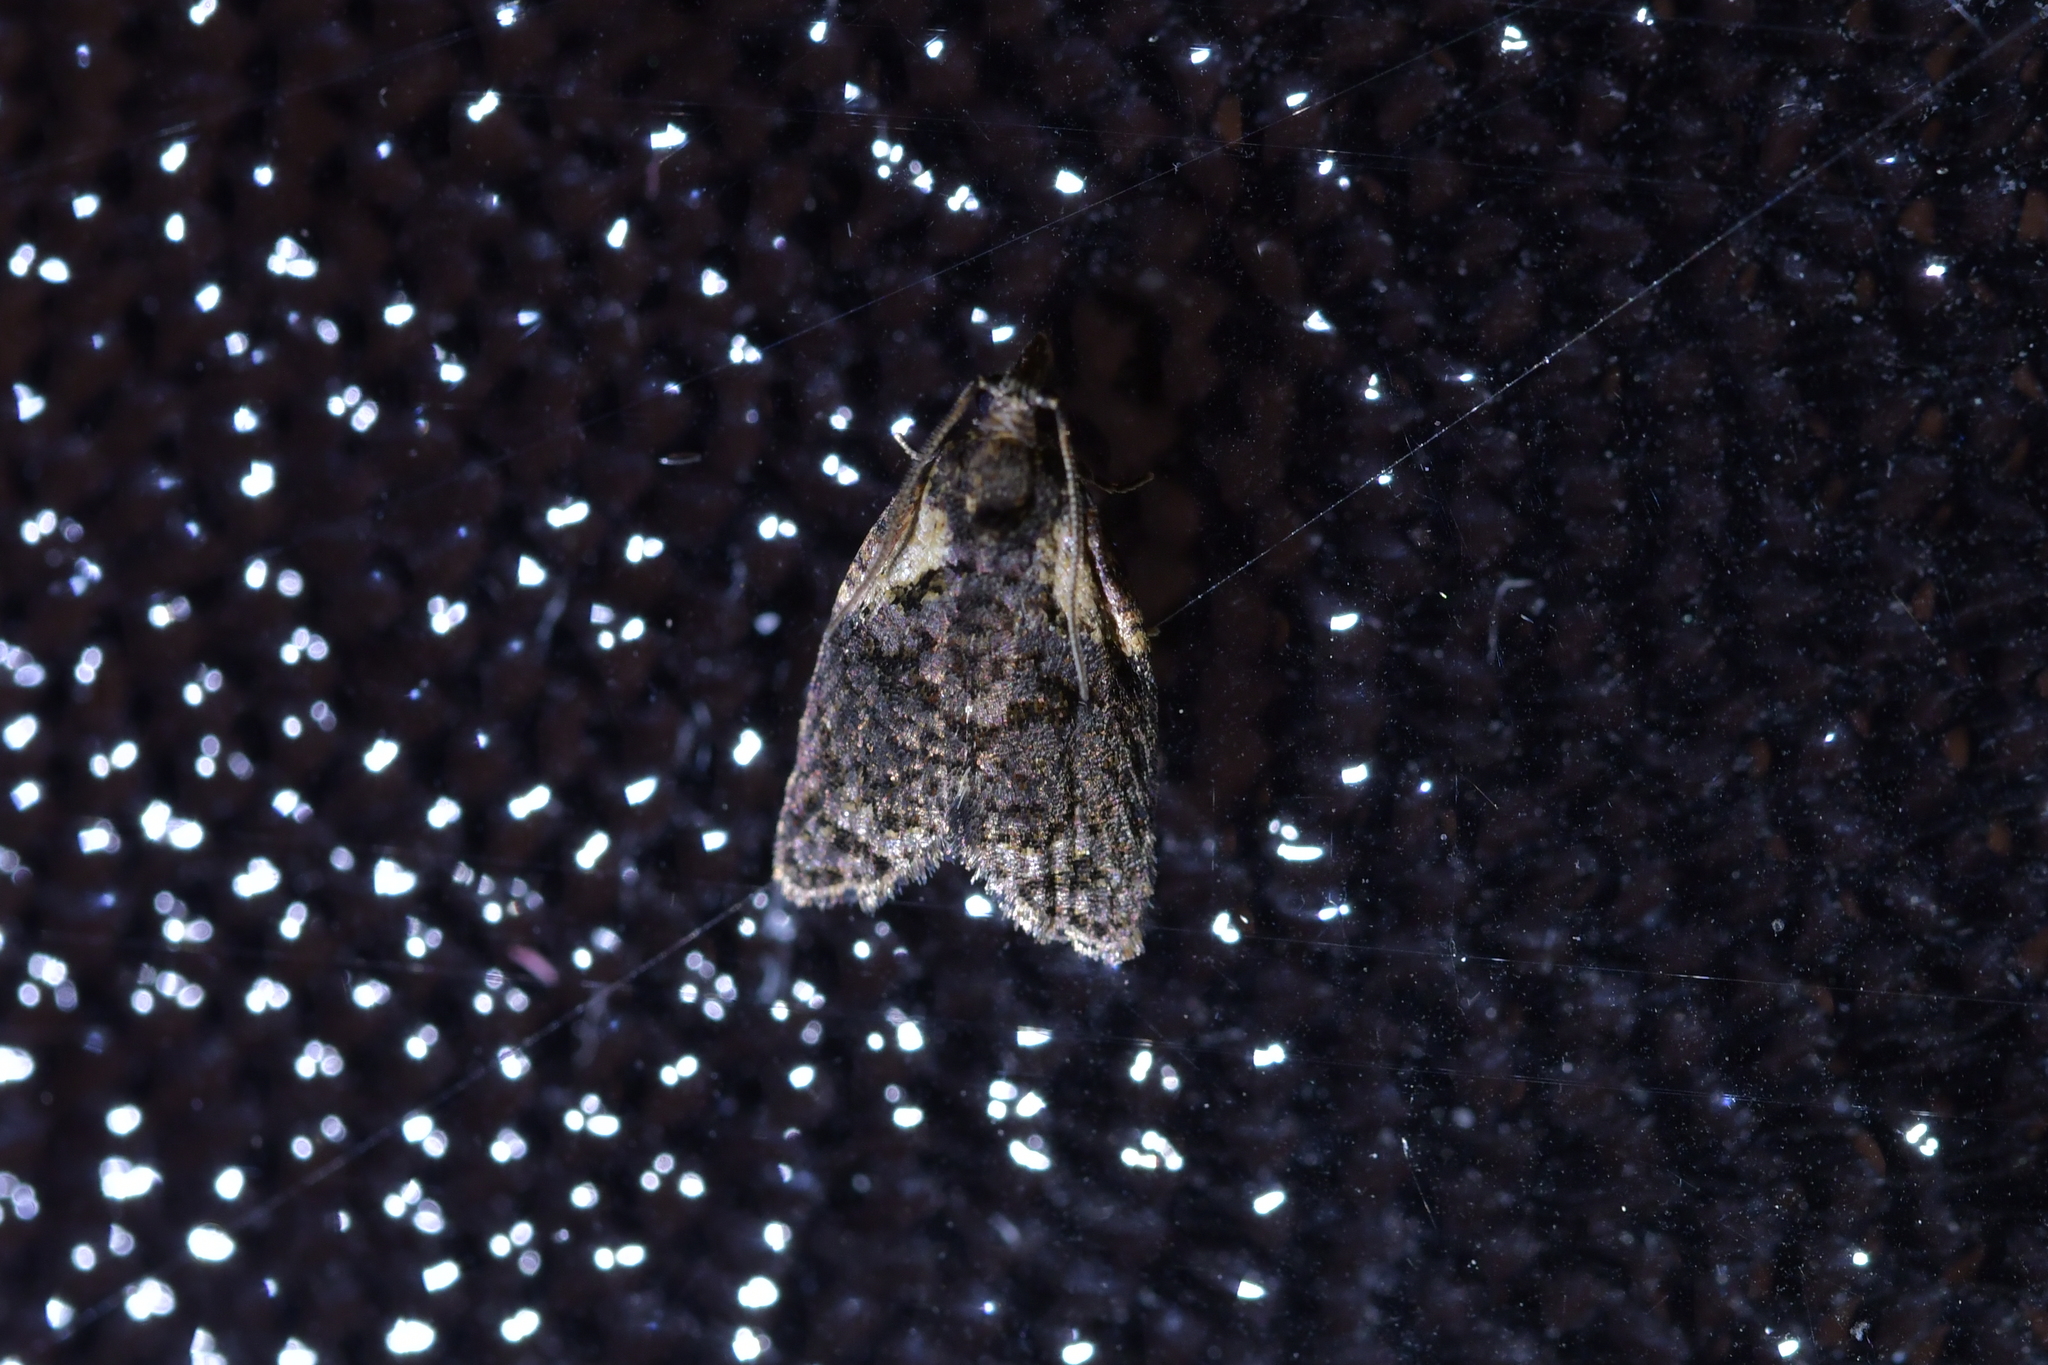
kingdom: Animalia
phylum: Arthropoda
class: Insecta
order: Lepidoptera
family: Tortricidae
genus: Capua
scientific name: Capua intractana
